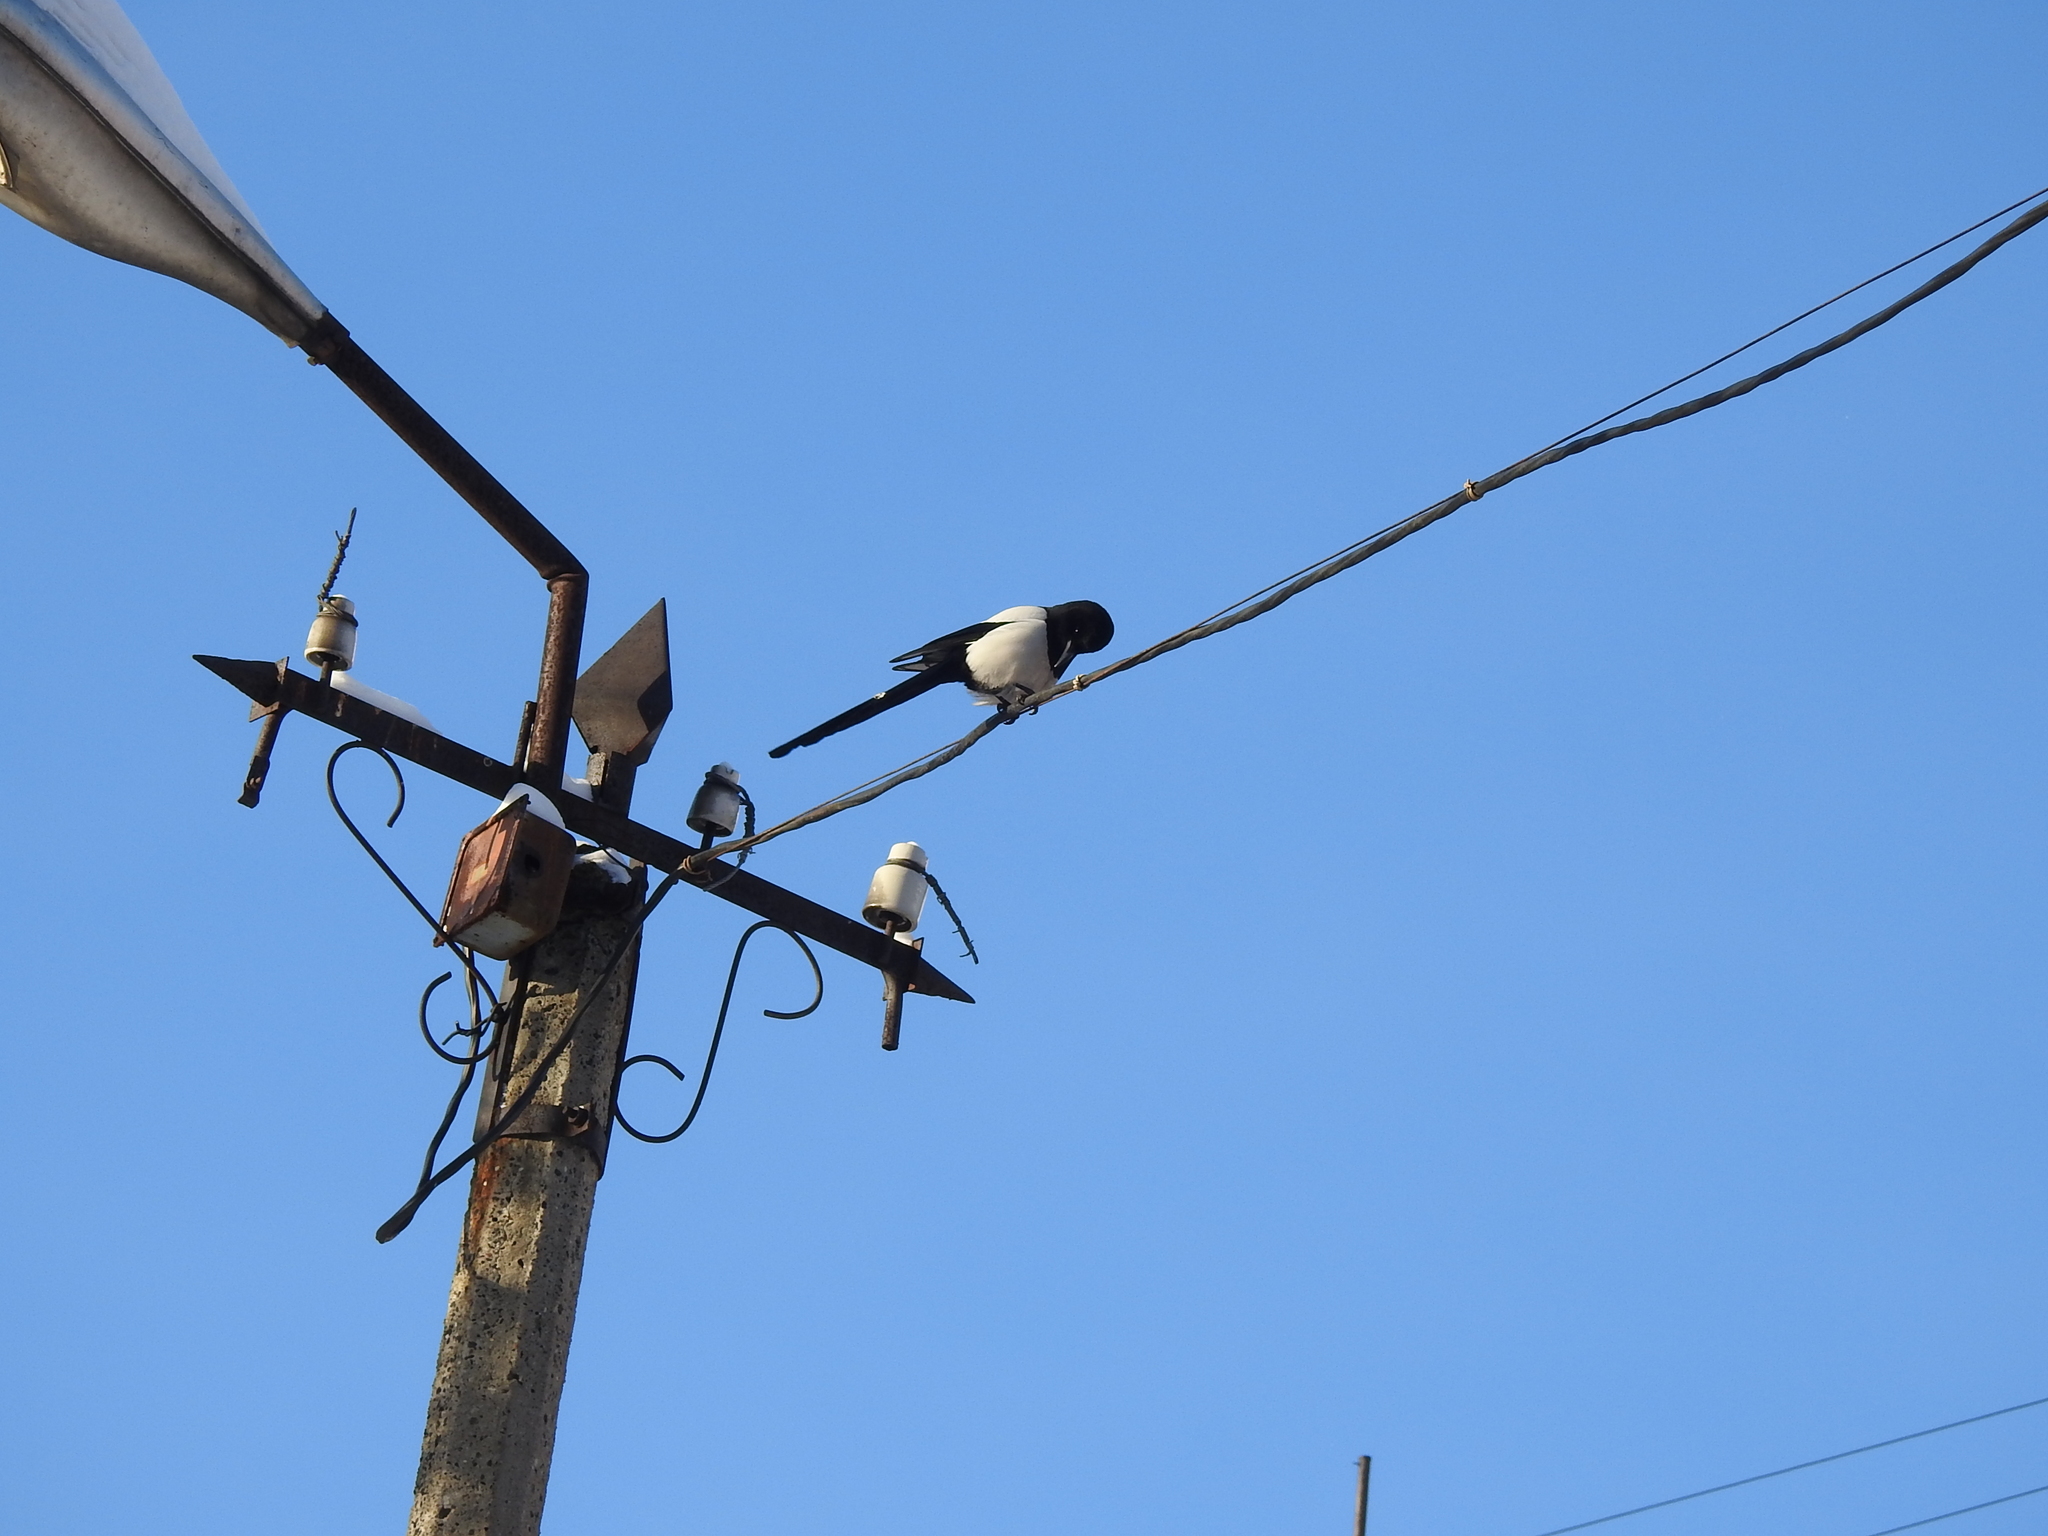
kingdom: Animalia
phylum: Chordata
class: Aves
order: Passeriformes
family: Corvidae
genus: Pica
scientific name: Pica pica
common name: Eurasian magpie
